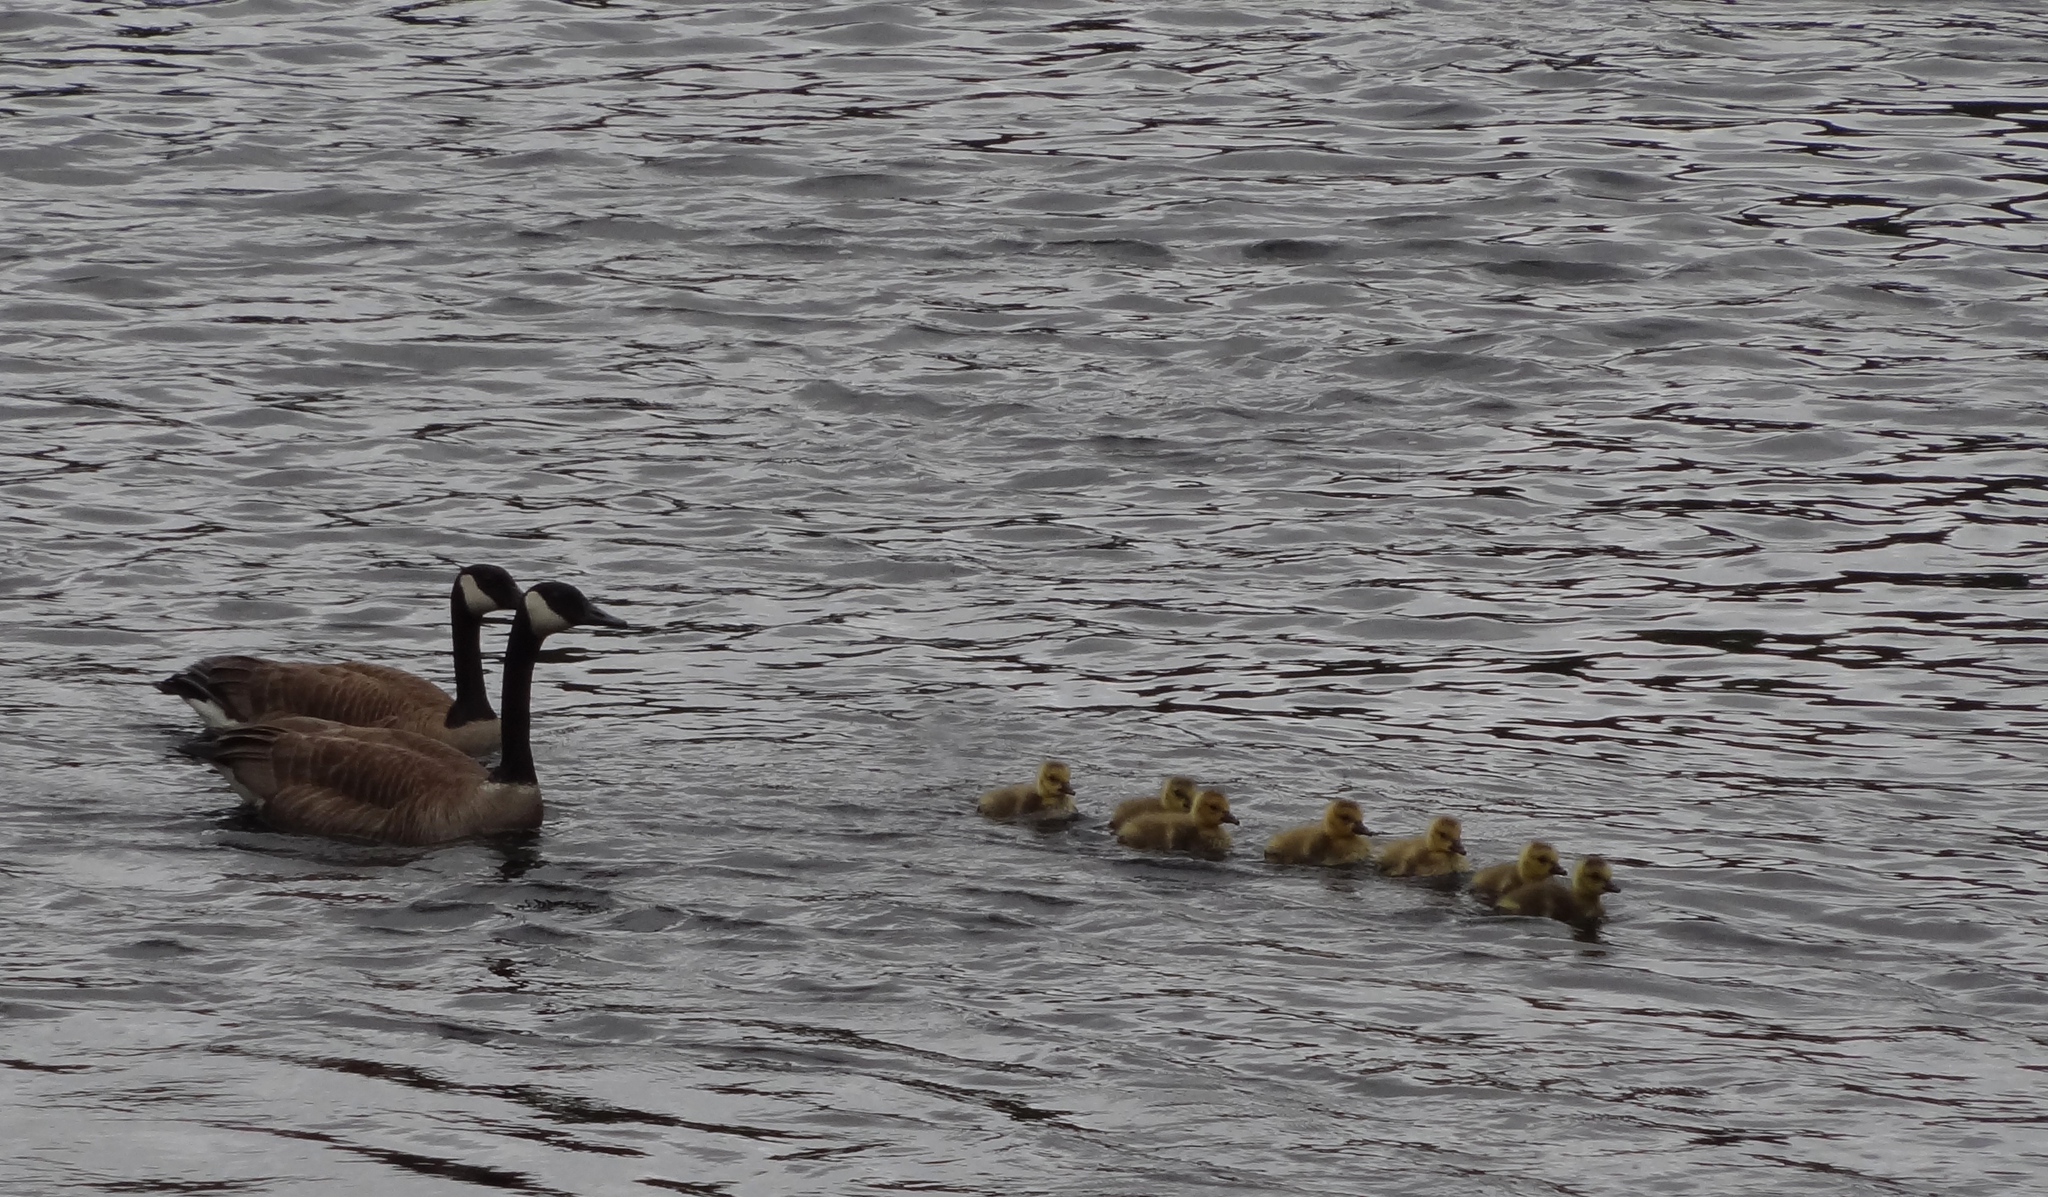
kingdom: Animalia
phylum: Chordata
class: Aves
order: Anseriformes
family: Anatidae
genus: Branta
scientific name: Branta canadensis
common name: Canada goose
